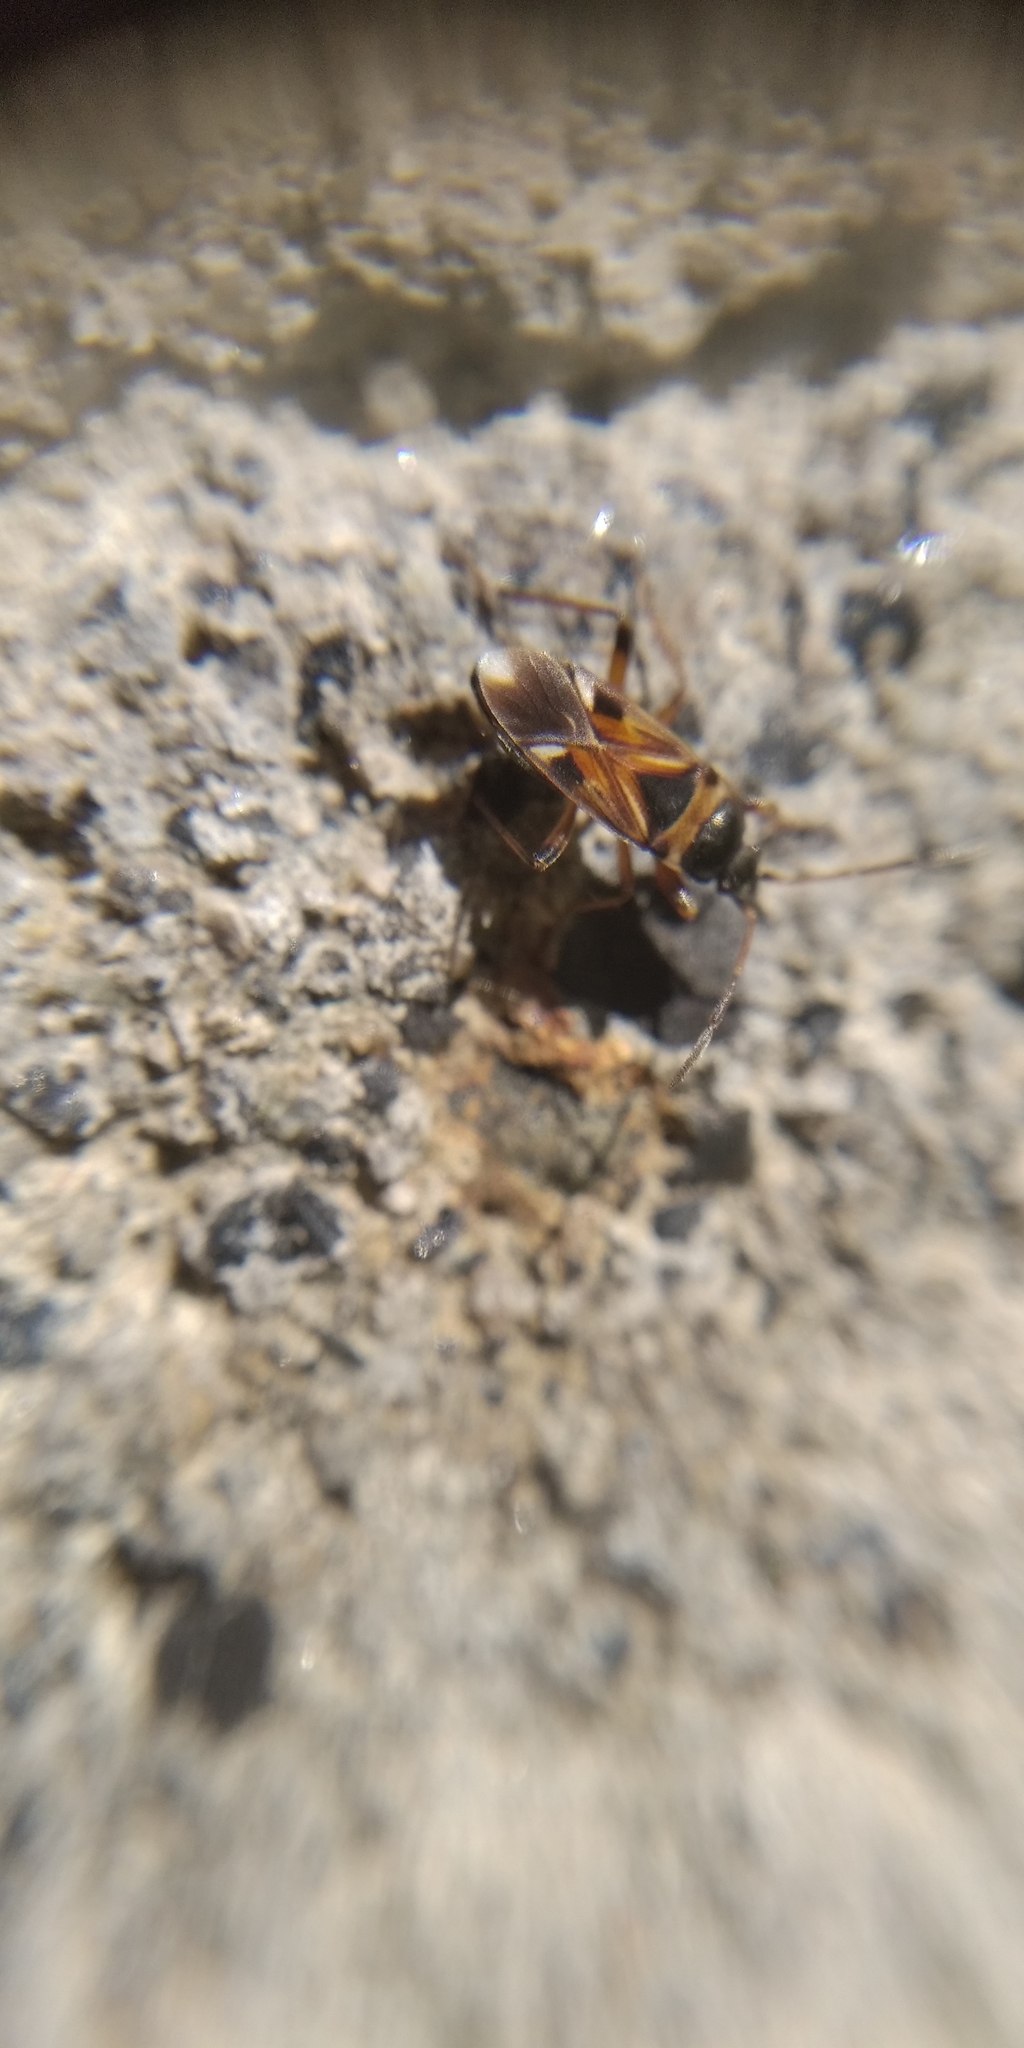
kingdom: Animalia
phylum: Arthropoda
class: Insecta
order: Hemiptera
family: Rhyparochromidae
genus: Rhyparochromus
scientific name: Rhyparochromus vulgaris
